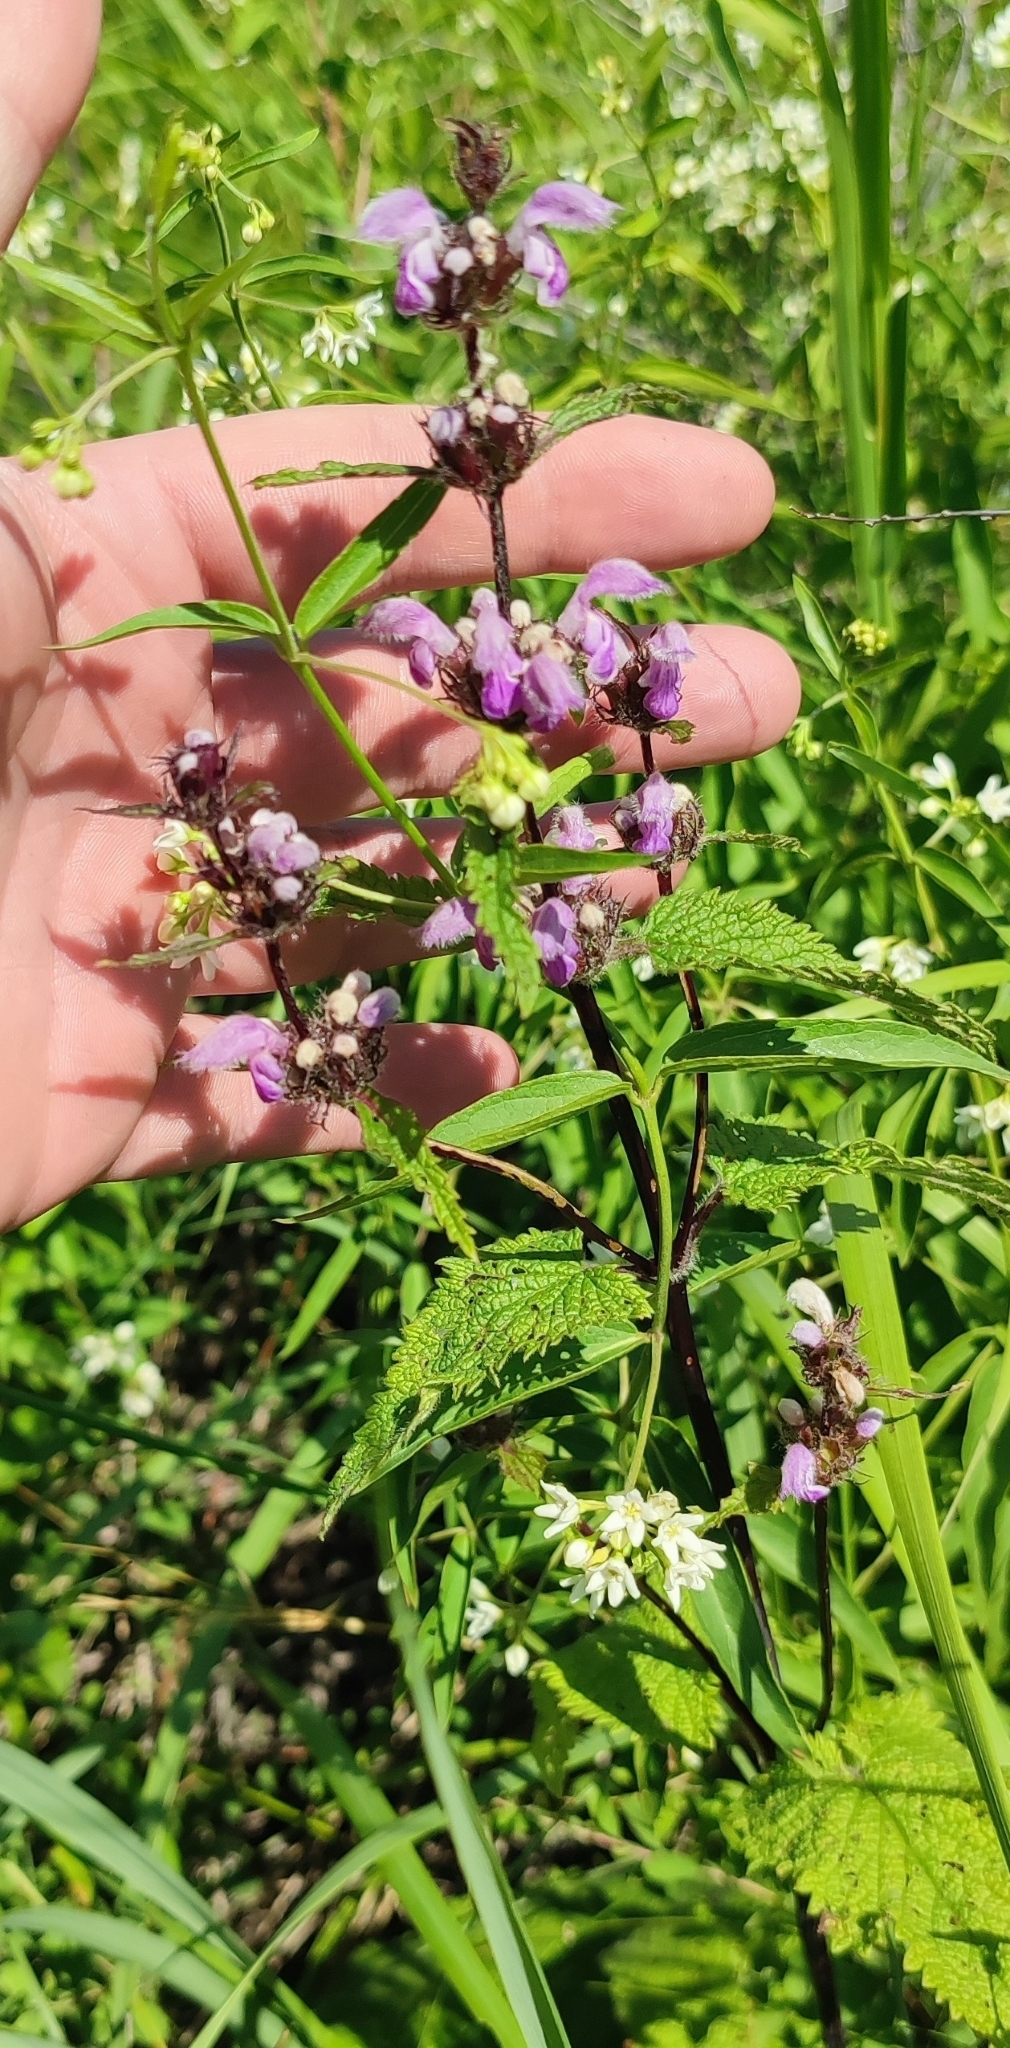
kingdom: Plantae
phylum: Tracheophyta
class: Magnoliopsida
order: Lamiales
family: Lamiaceae
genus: Phlomoides
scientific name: Phlomoides tuberosa
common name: Tuberous jerusalem sage
